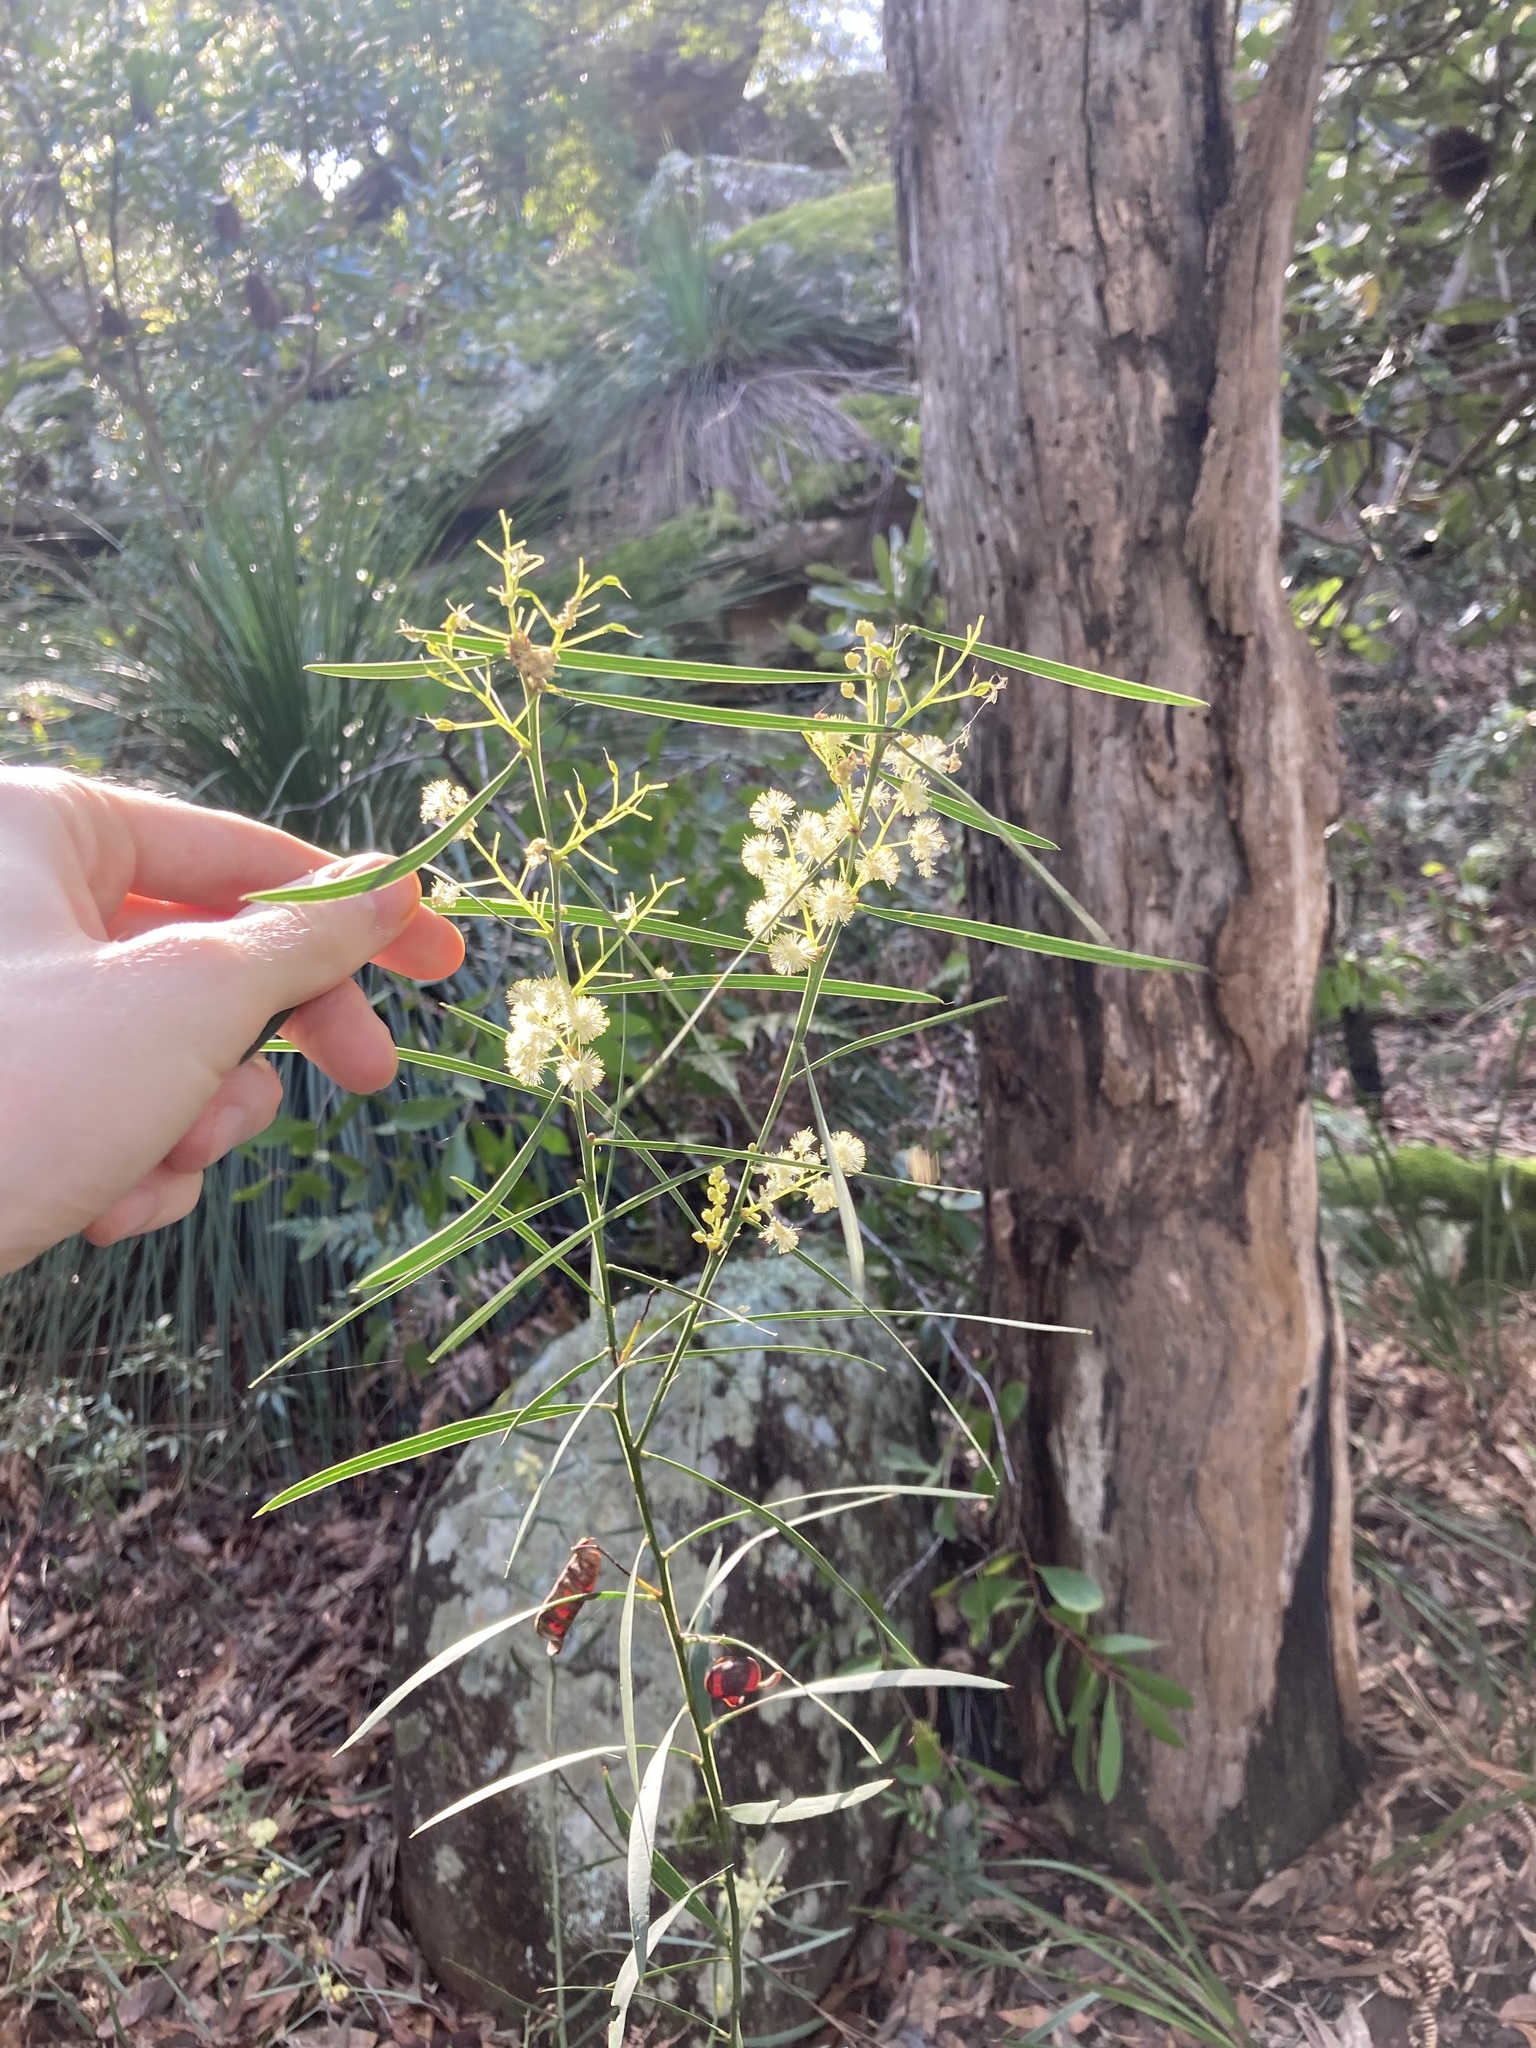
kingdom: Plantae
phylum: Tracheophyta
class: Magnoliopsida
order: Fabales
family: Fabaceae
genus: Acacia
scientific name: Acacia suaveolens
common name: Sweet acacia
